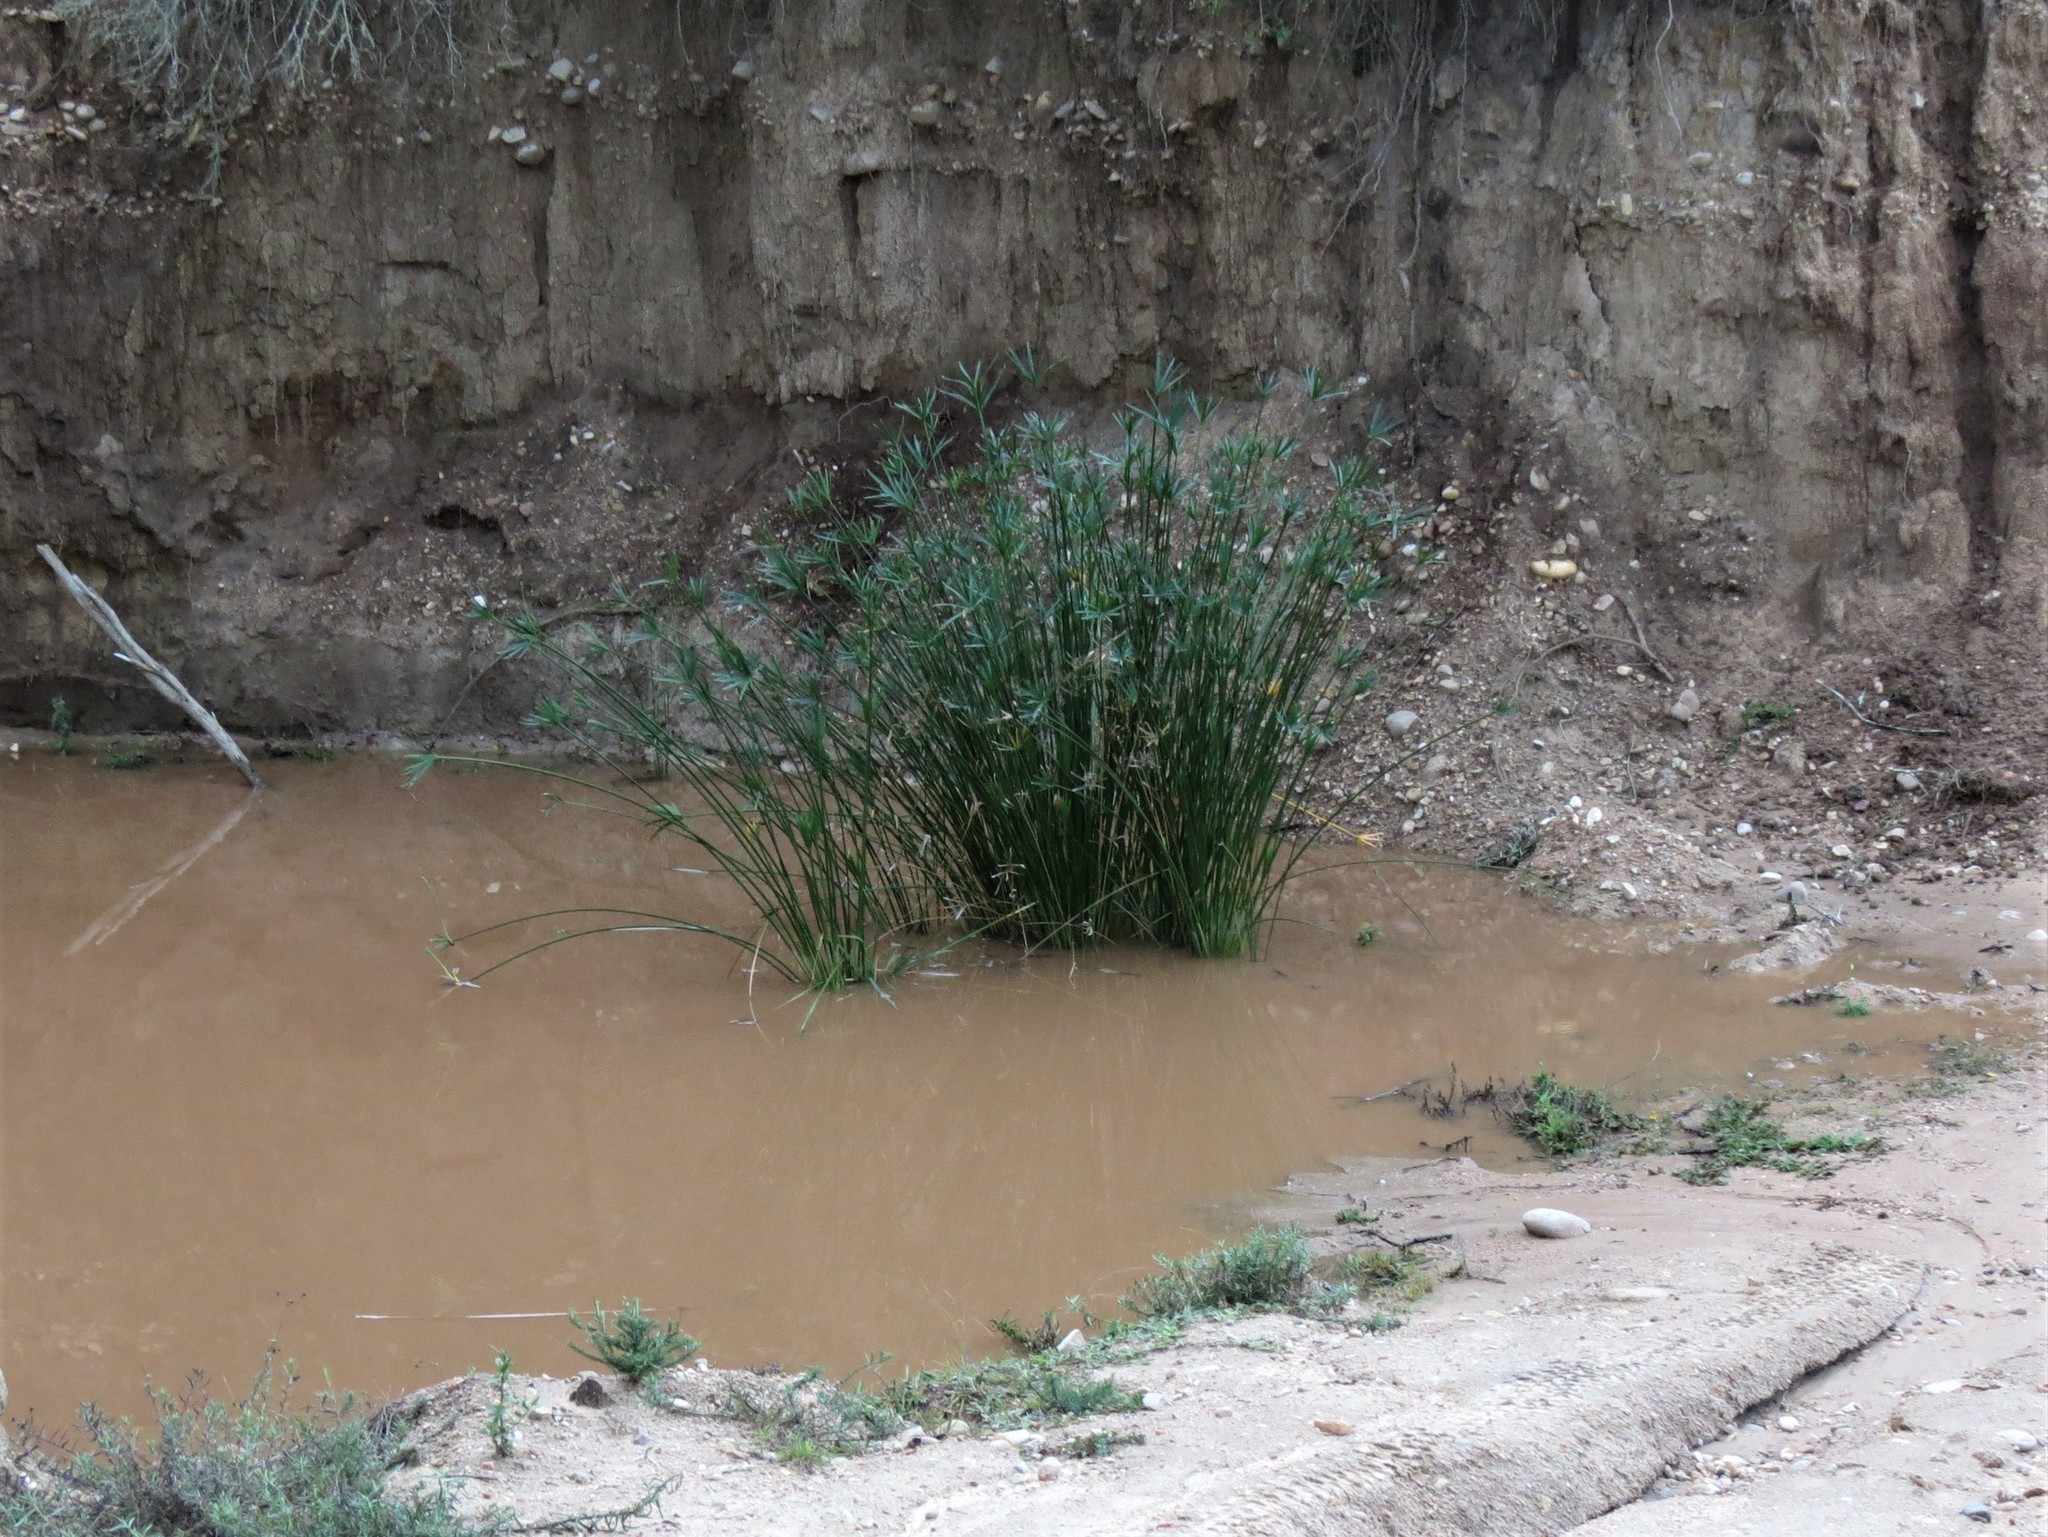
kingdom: Plantae
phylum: Tracheophyta
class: Liliopsida
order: Poales
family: Cyperaceae
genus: Cyperus
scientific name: Cyperus textilis
